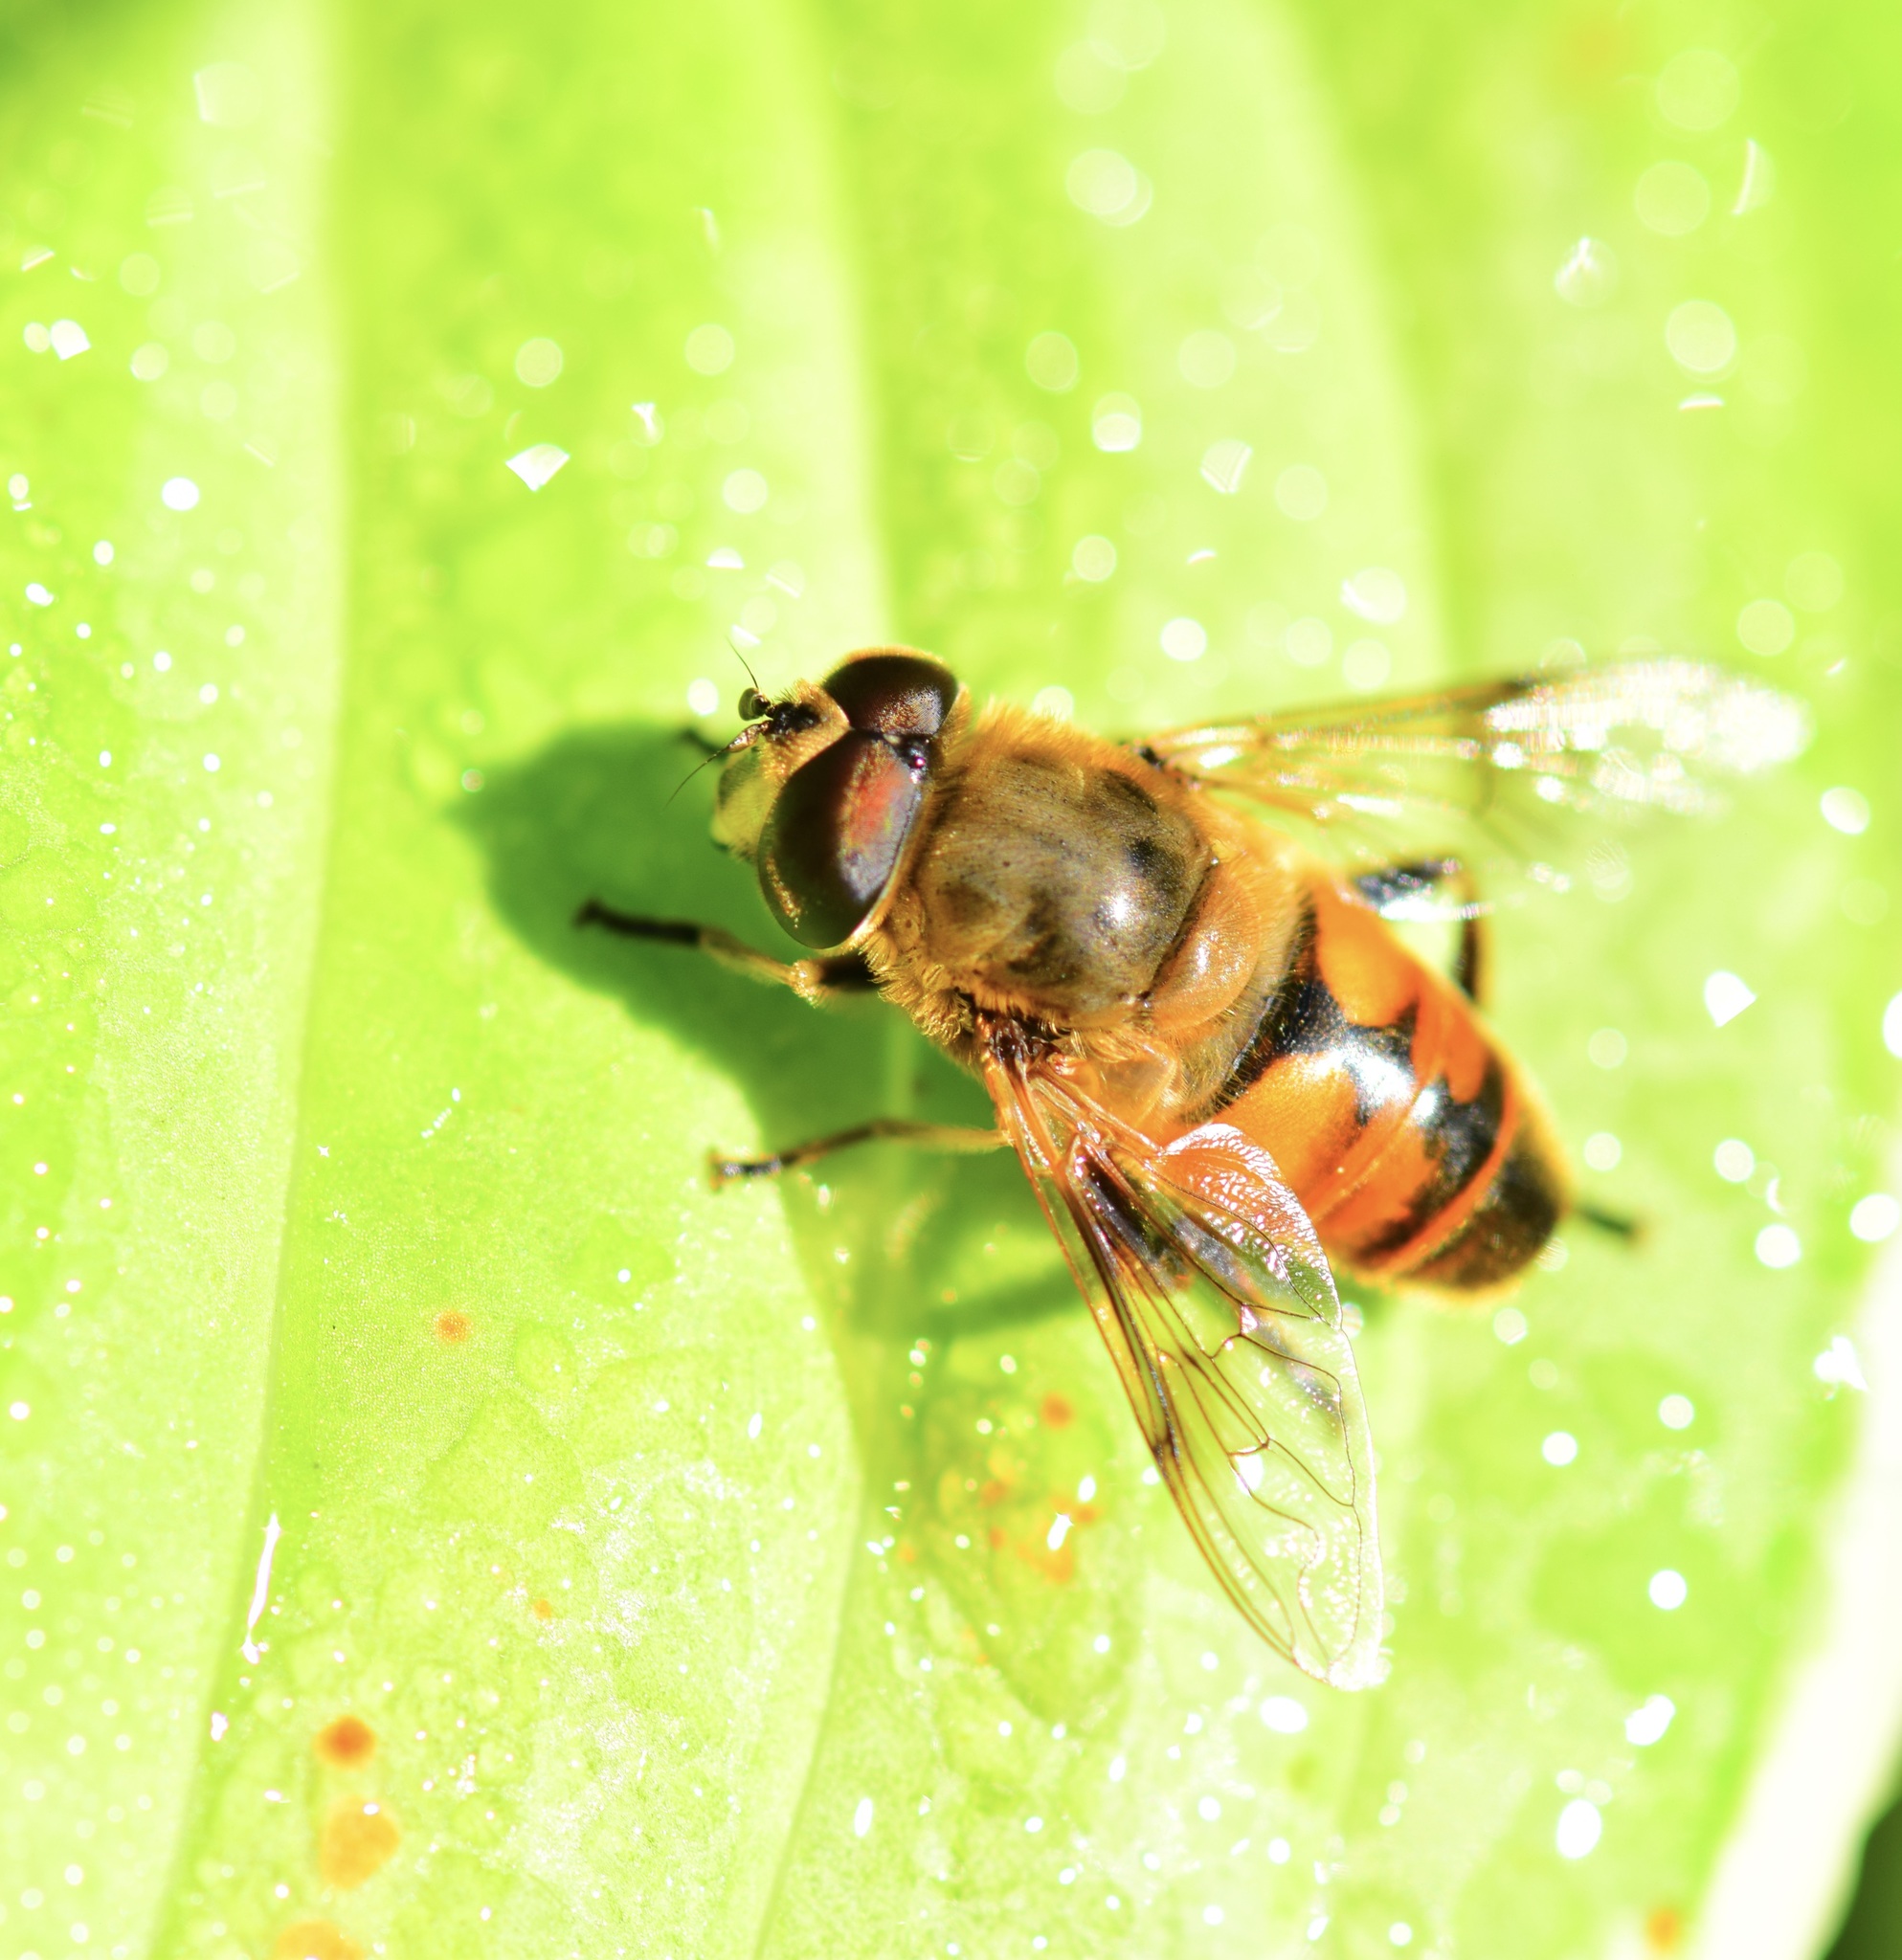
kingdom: Animalia
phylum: Arthropoda
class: Insecta
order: Diptera
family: Syrphidae
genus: Eristalis
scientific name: Eristalis tenax
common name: Drone fly
